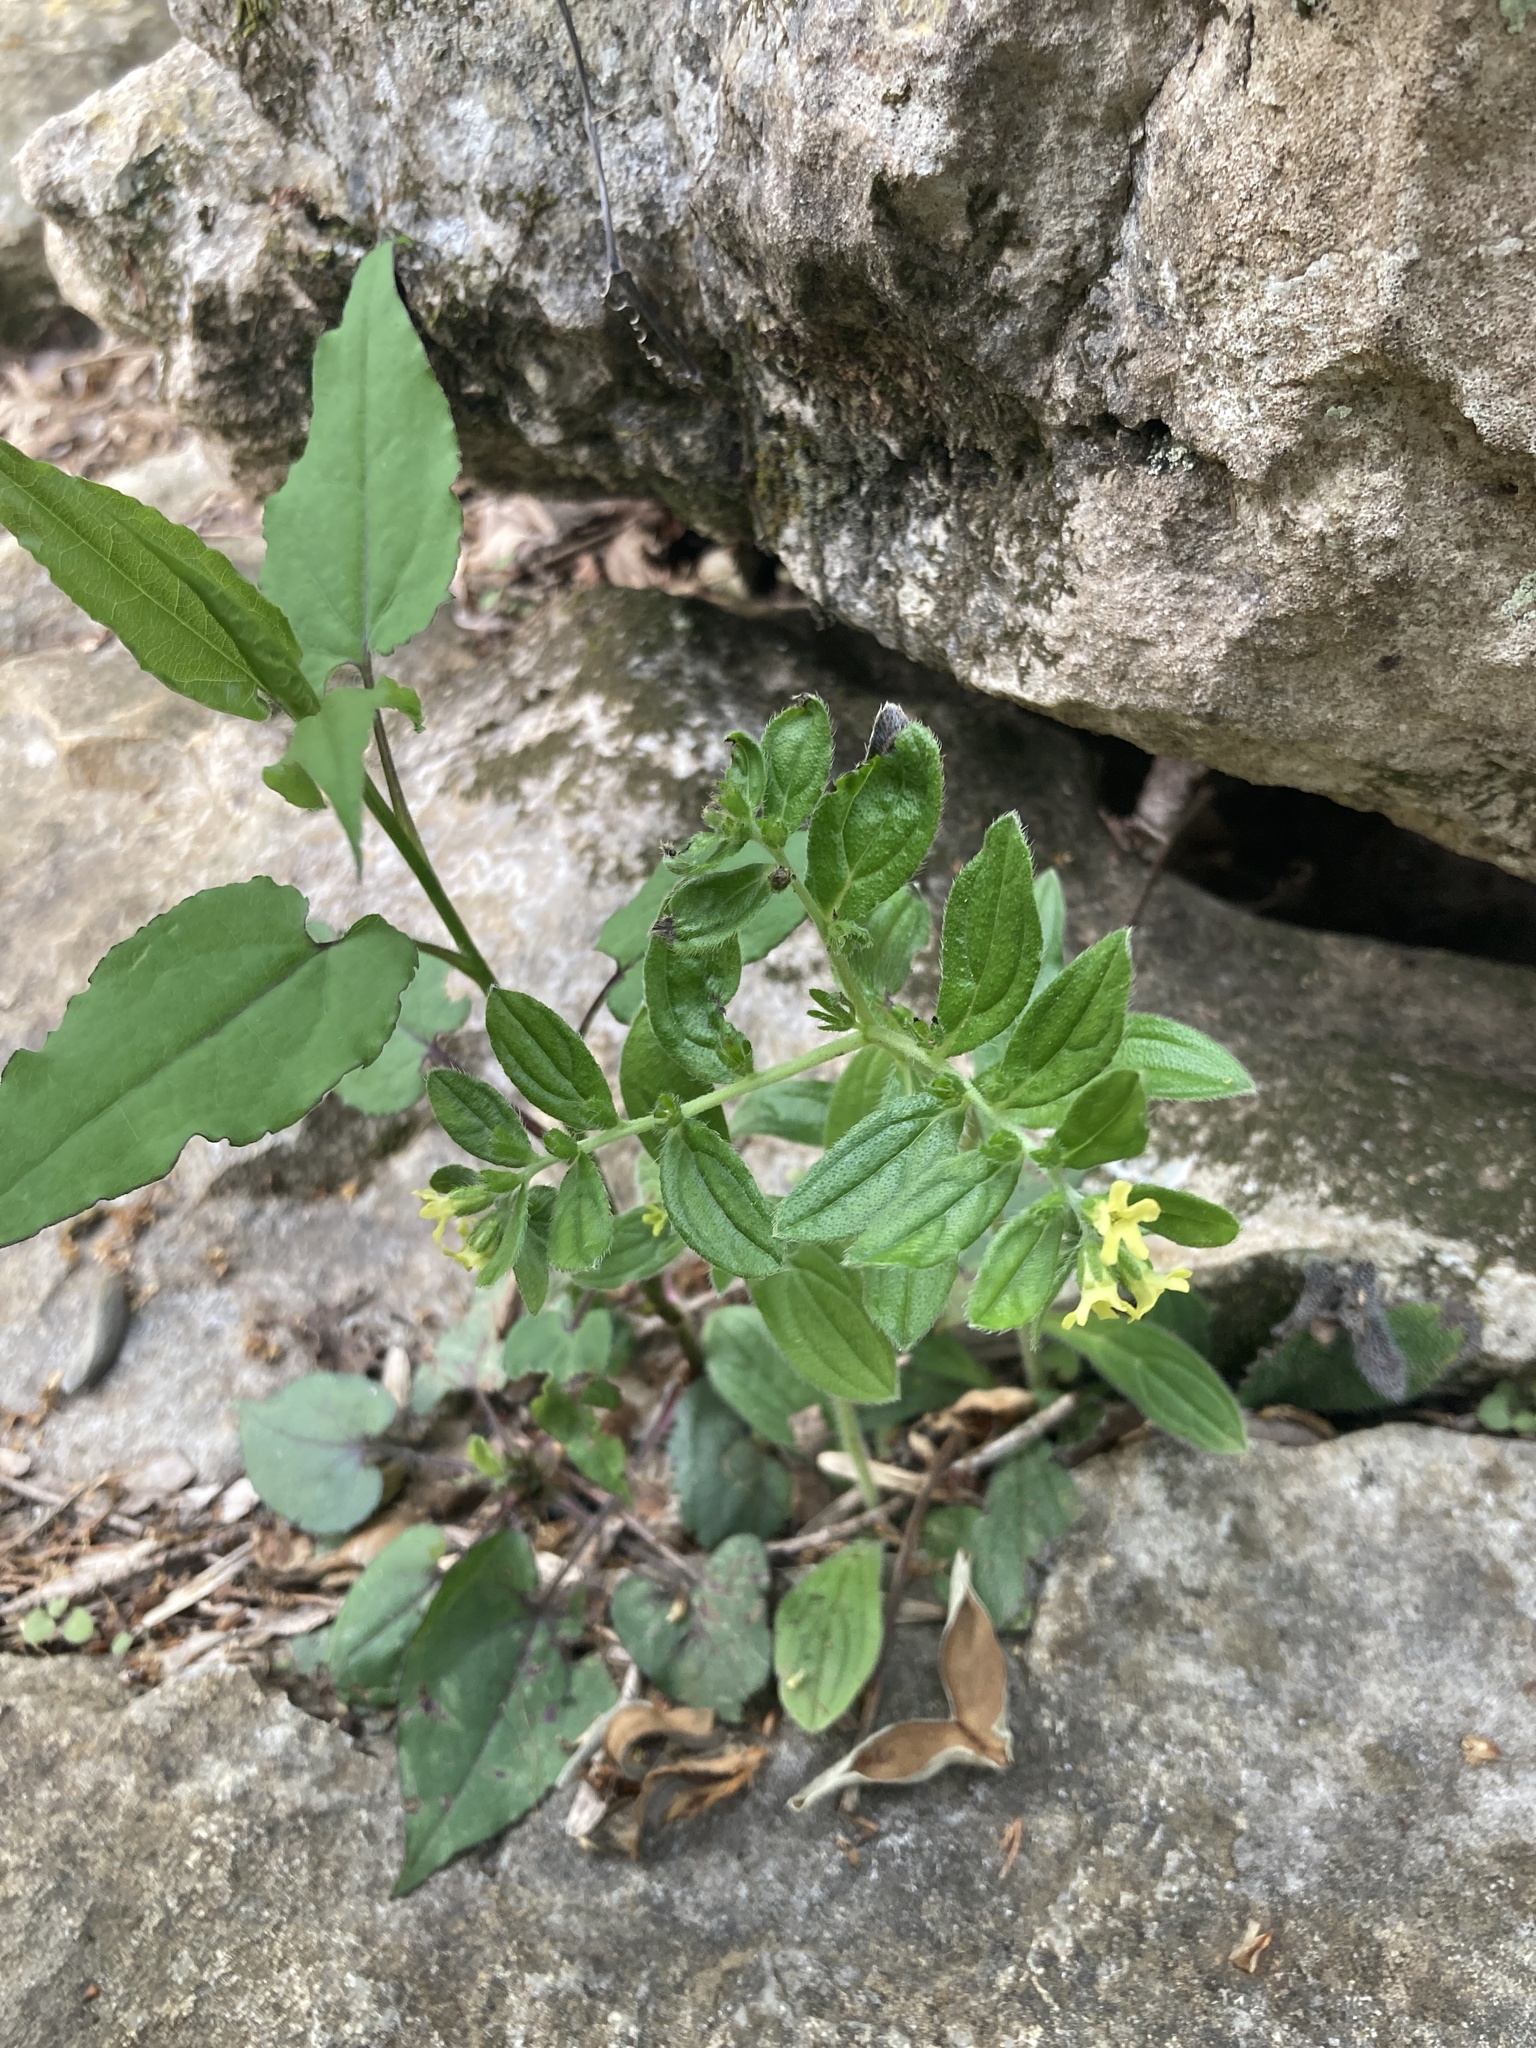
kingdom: Plantae
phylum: Tracheophyta
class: Magnoliopsida
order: Boraginales
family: Boraginaceae
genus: Lithospermum
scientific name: Lithospermum tuberosum
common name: Southern stoneseed
